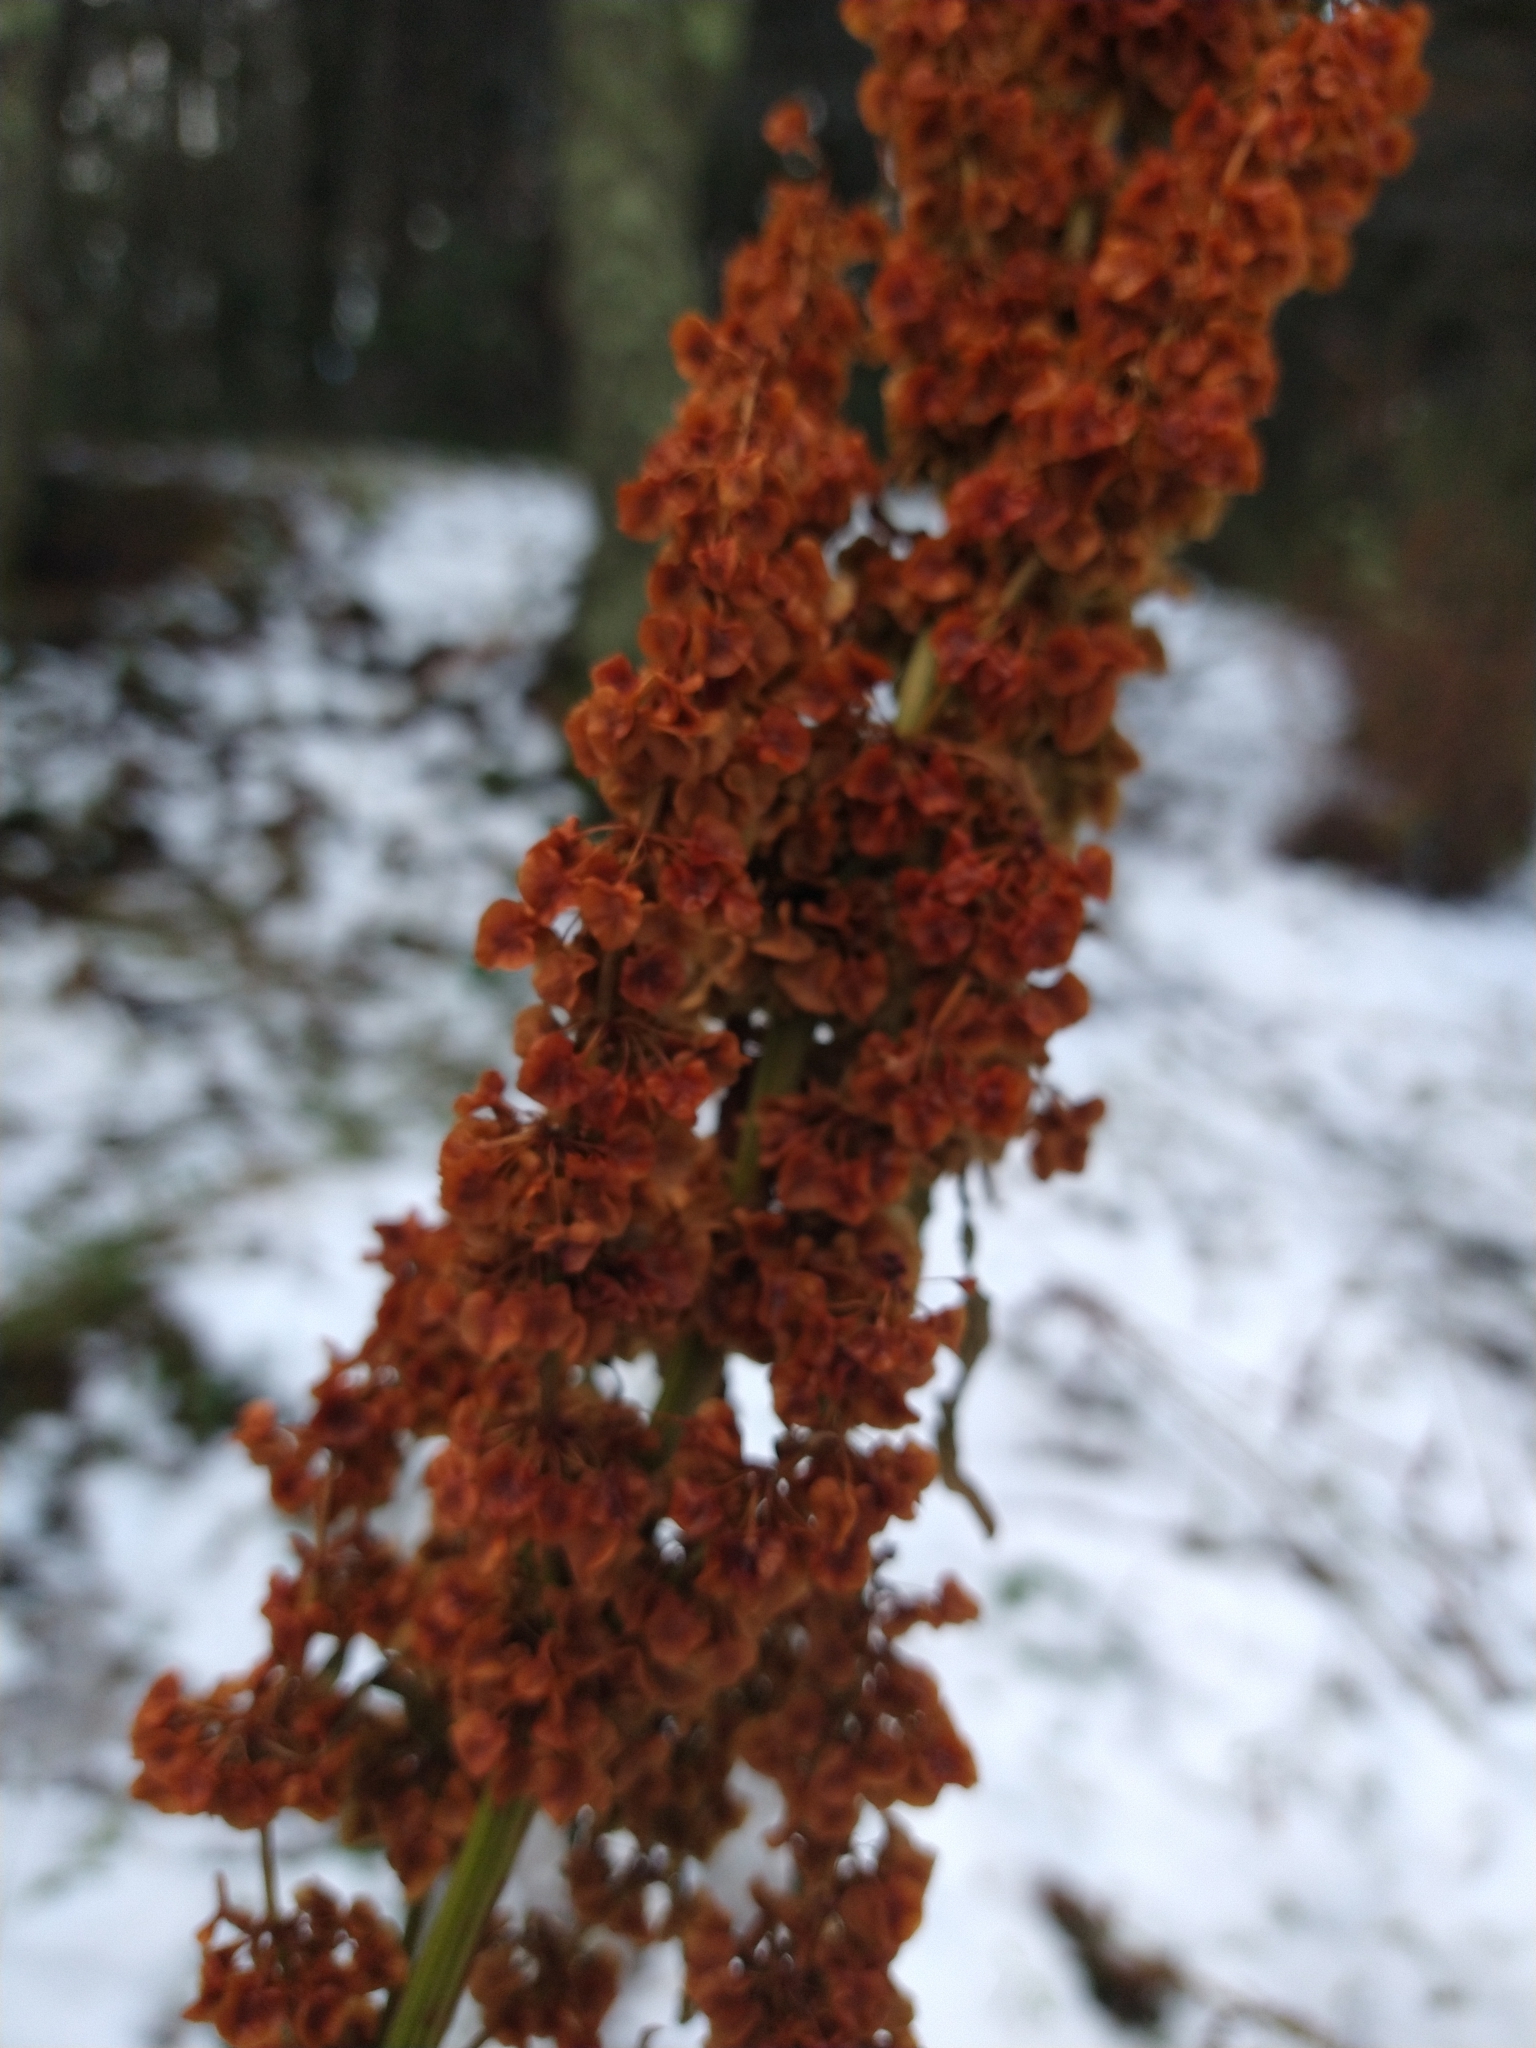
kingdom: Plantae
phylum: Tracheophyta
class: Magnoliopsida
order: Caryophyllales
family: Polygonaceae
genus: Rumex
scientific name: Rumex crispus
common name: Curled dock
